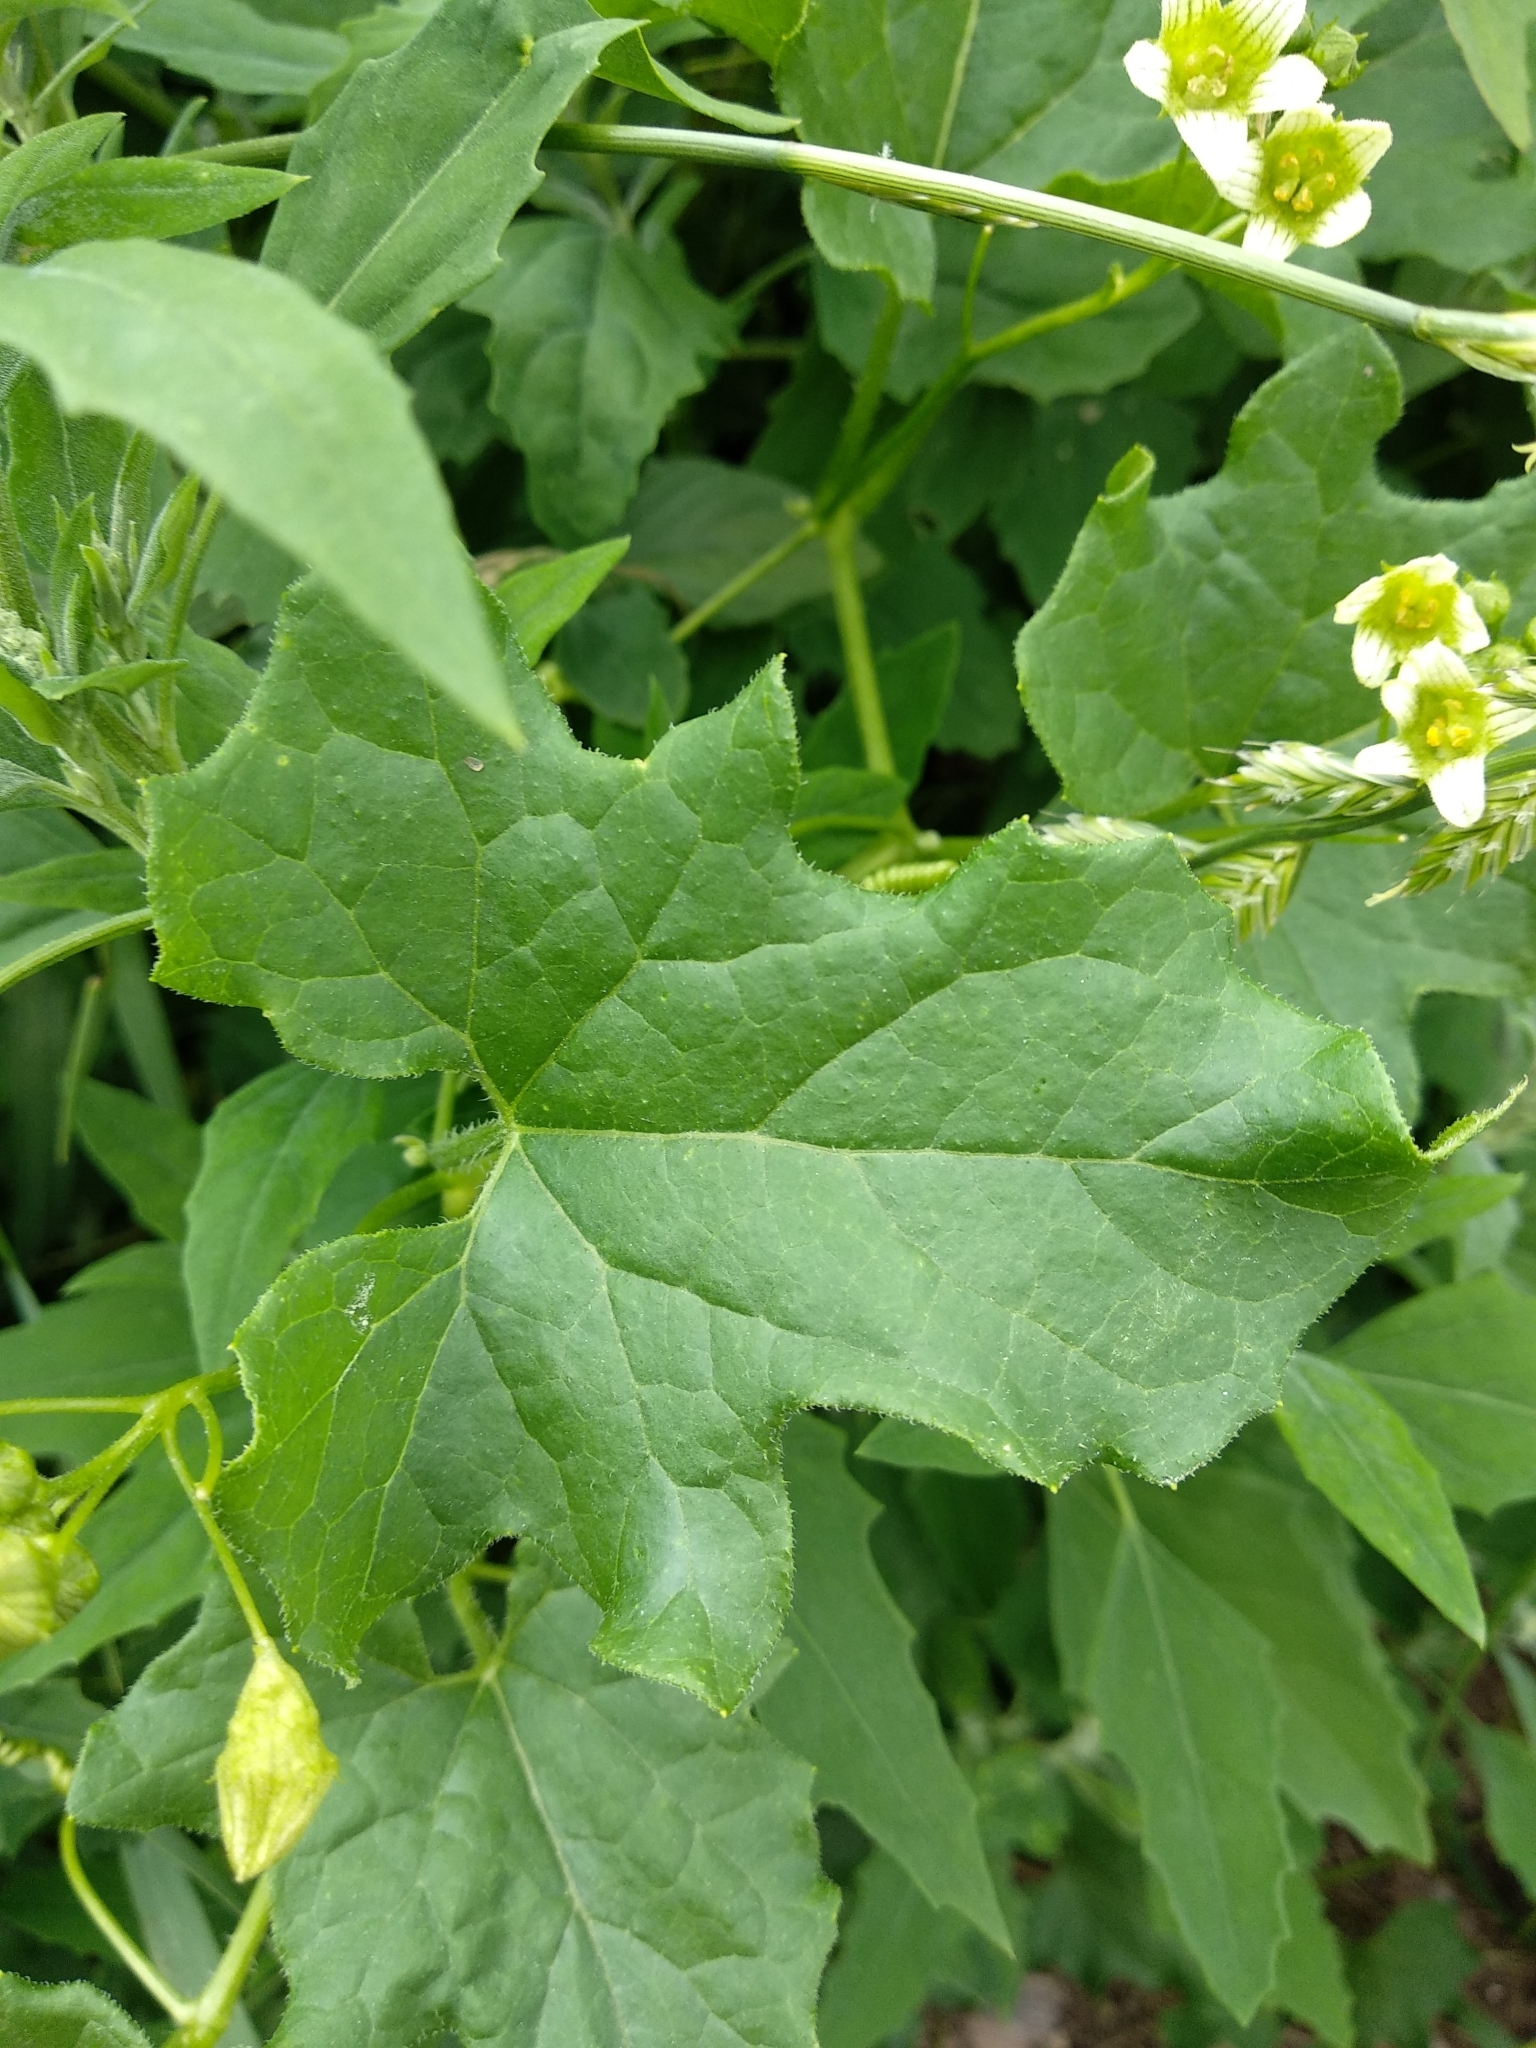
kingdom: Plantae
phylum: Tracheophyta
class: Magnoliopsida
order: Cucurbitales
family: Cucurbitaceae
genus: Bryonia
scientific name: Bryonia cretica
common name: Cretan bryony
